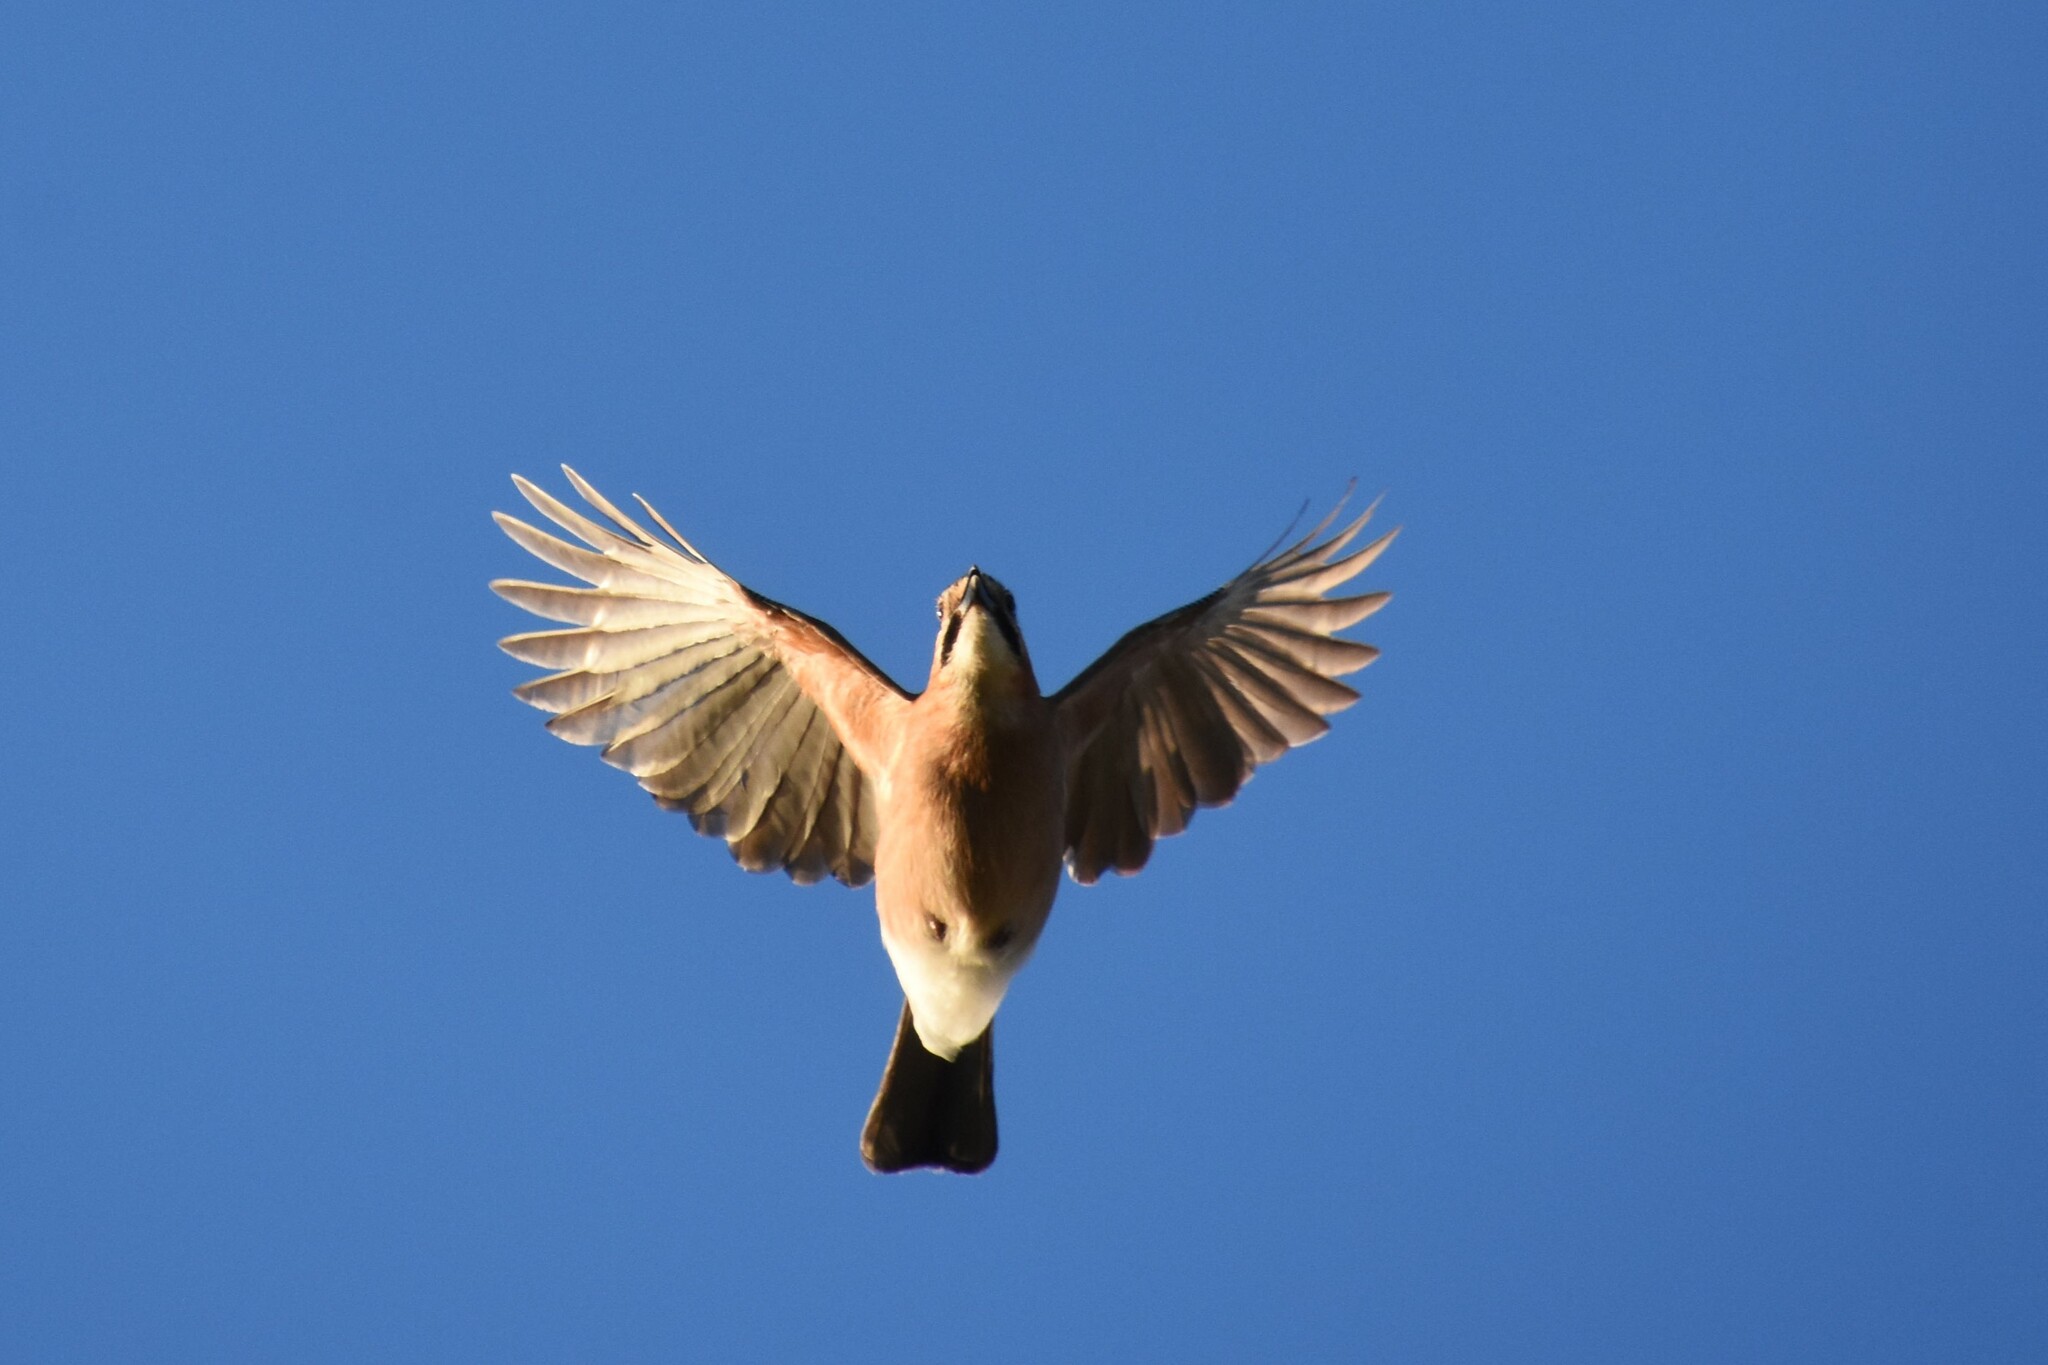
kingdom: Animalia
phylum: Chordata
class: Aves
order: Passeriformes
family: Corvidae
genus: Garrulus
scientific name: Garrulus glandarius
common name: Eurasian jay
